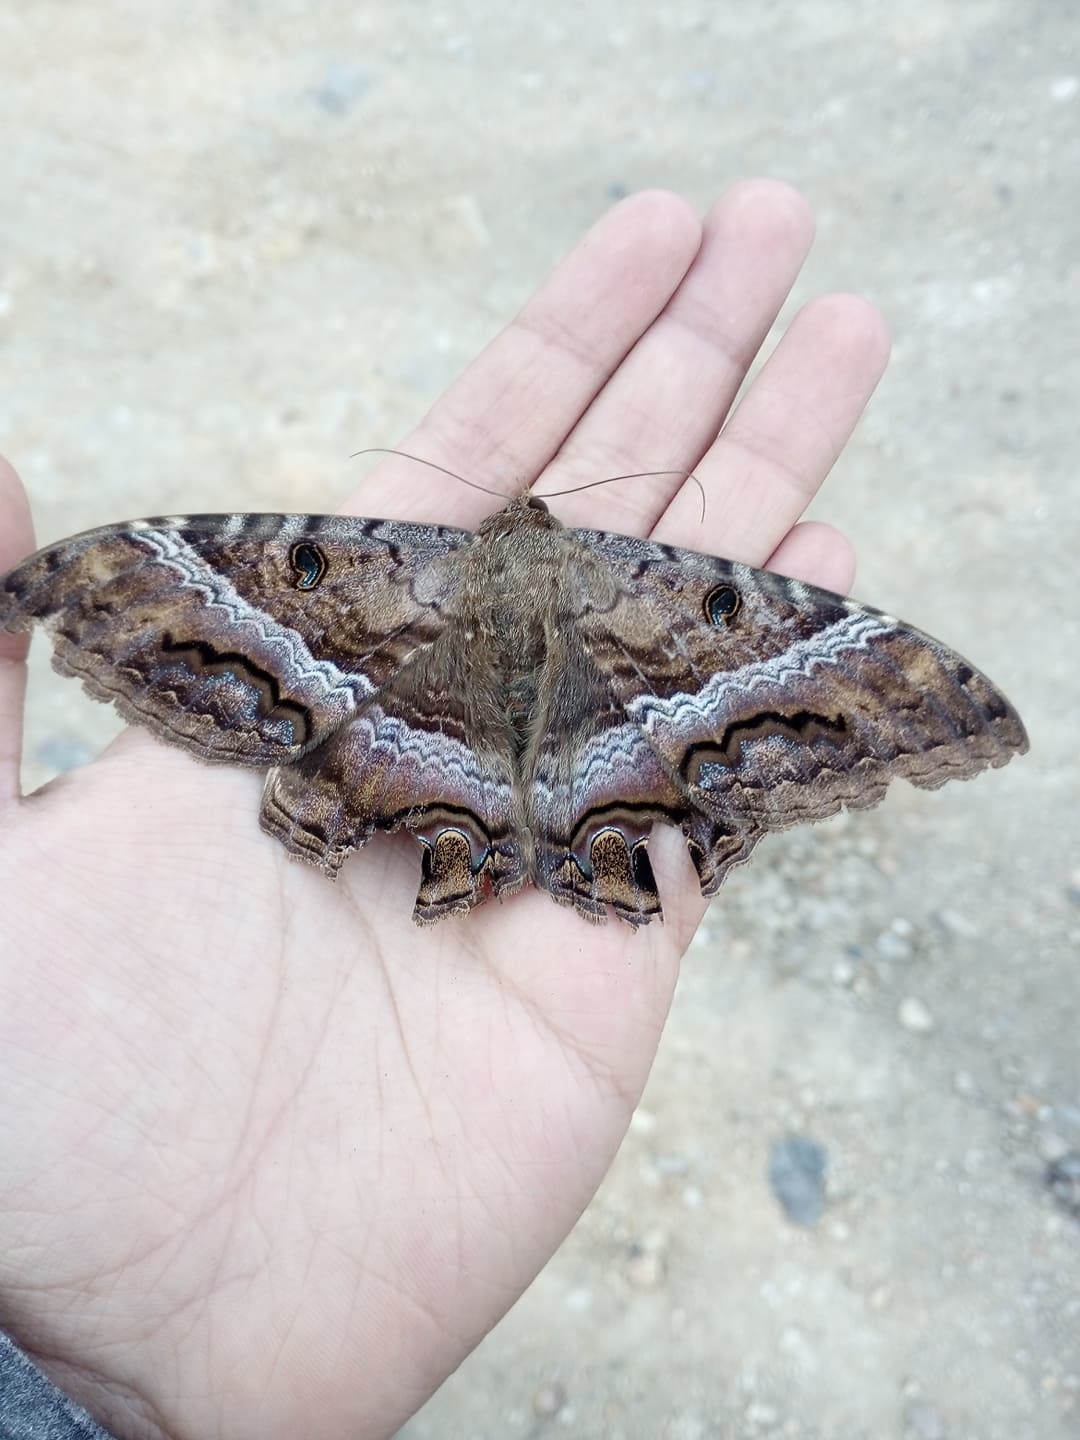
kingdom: Animalia
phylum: Arthropoda
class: Insecta
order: Lepidoptera
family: Erebidae
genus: Ascalapha
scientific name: Ascalapha odorata
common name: Black witch
